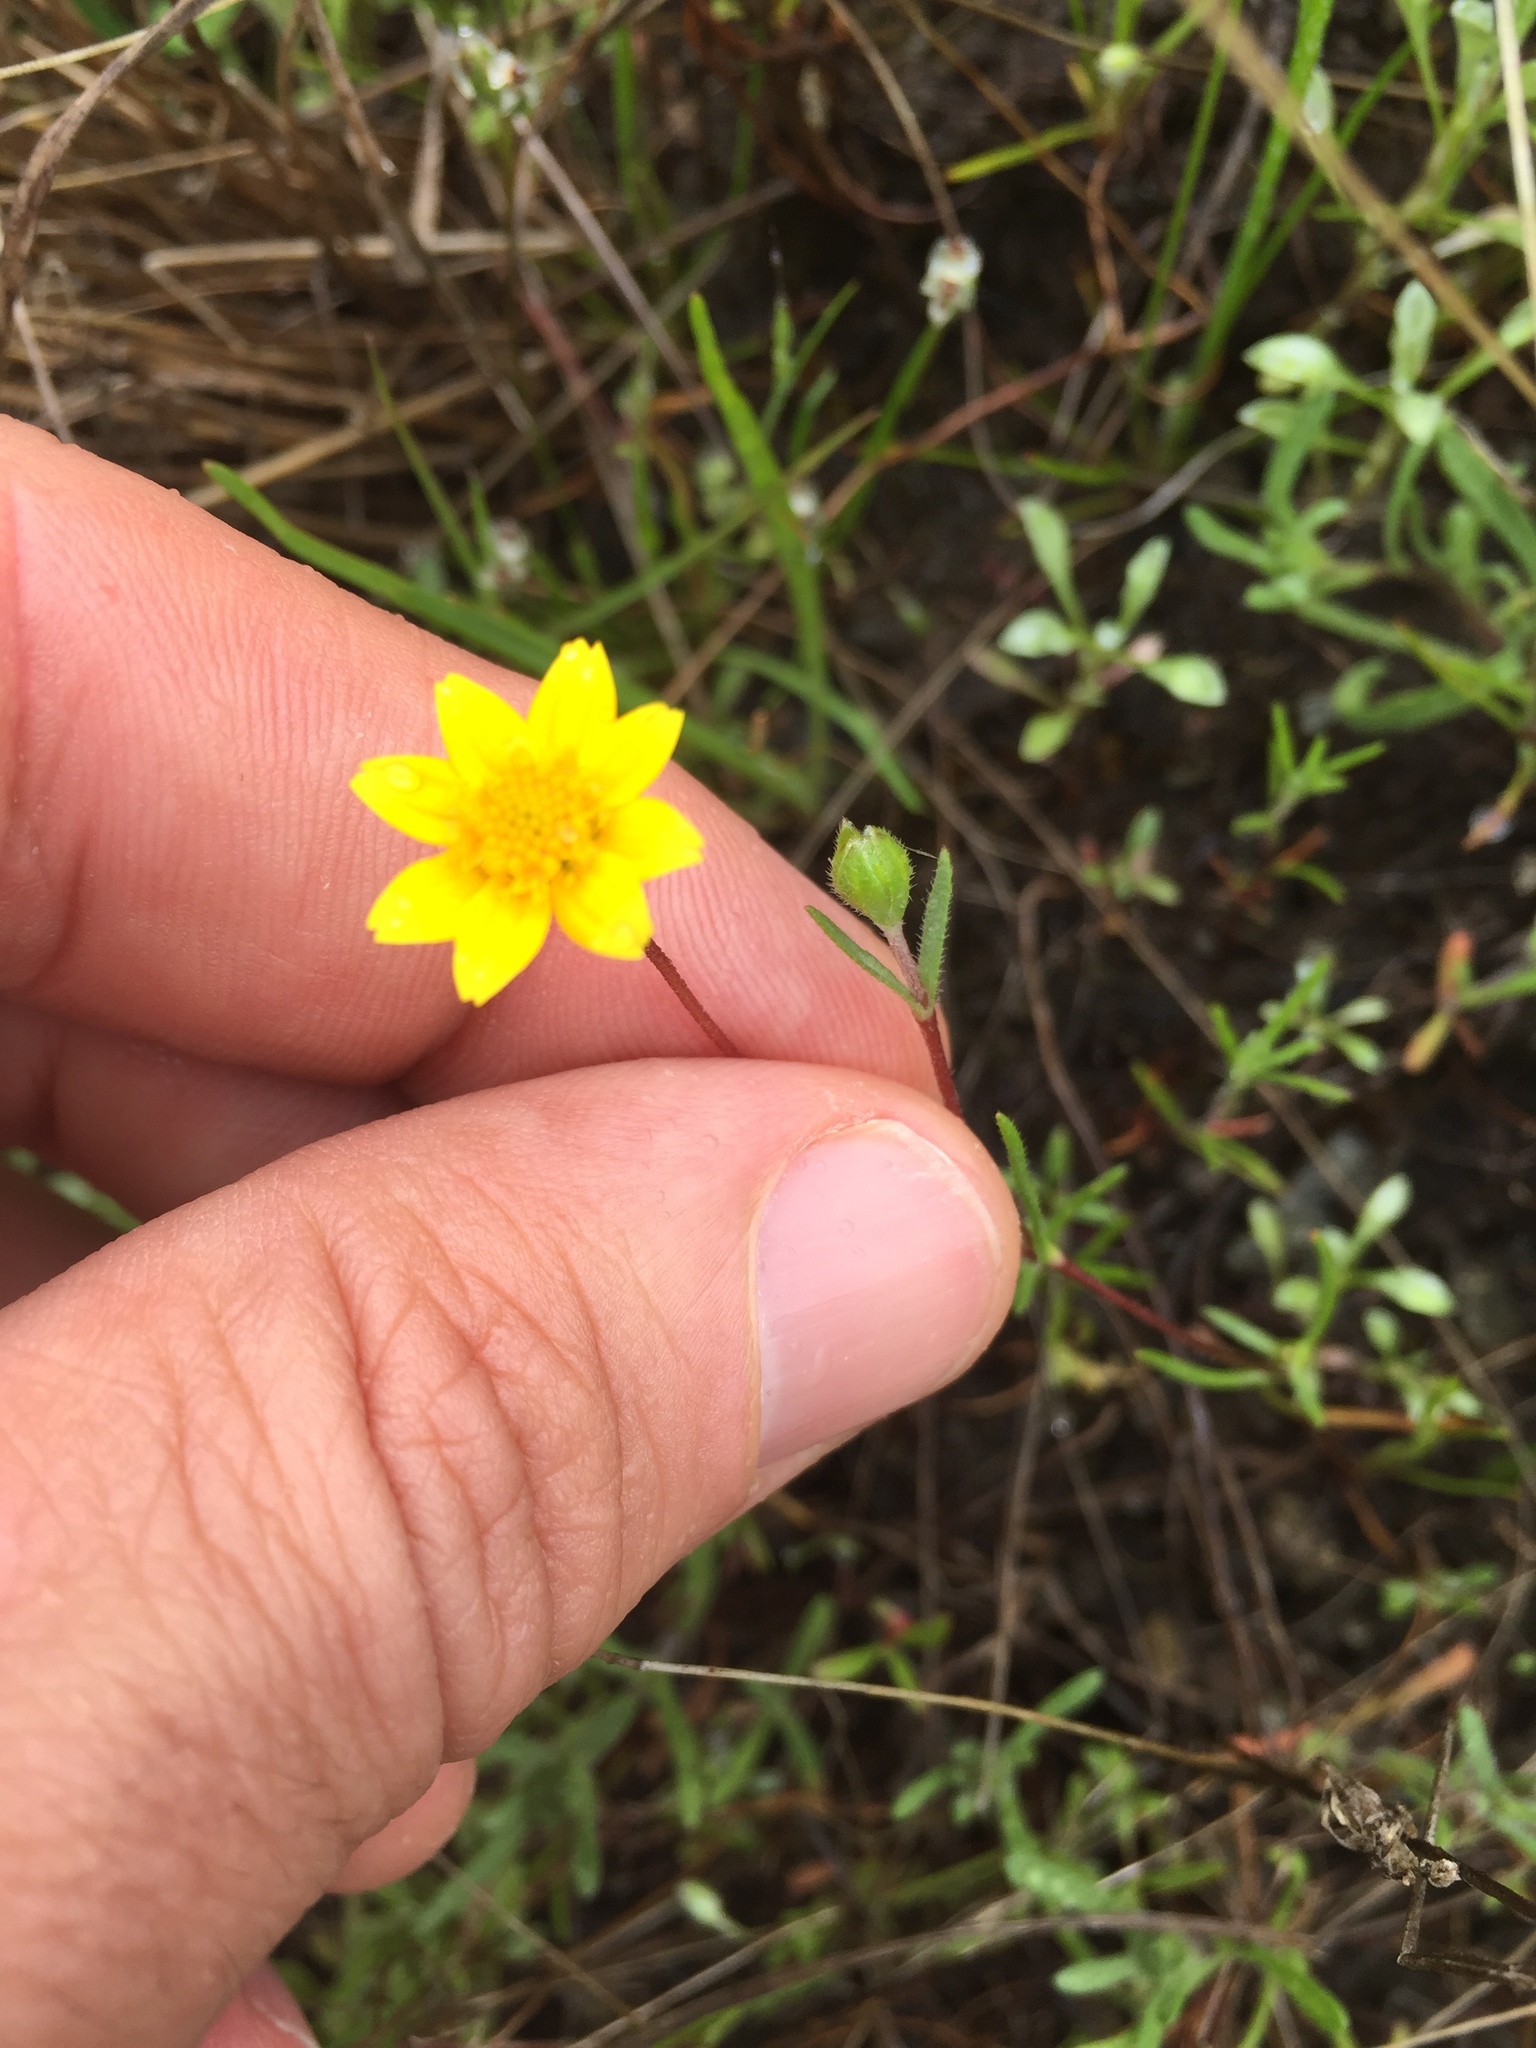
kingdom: Plantae
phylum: Tracheophyta
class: Magnoliopsida
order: Asterales
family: Asteraceae
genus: Lasthenia
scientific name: Lasthenia californica
